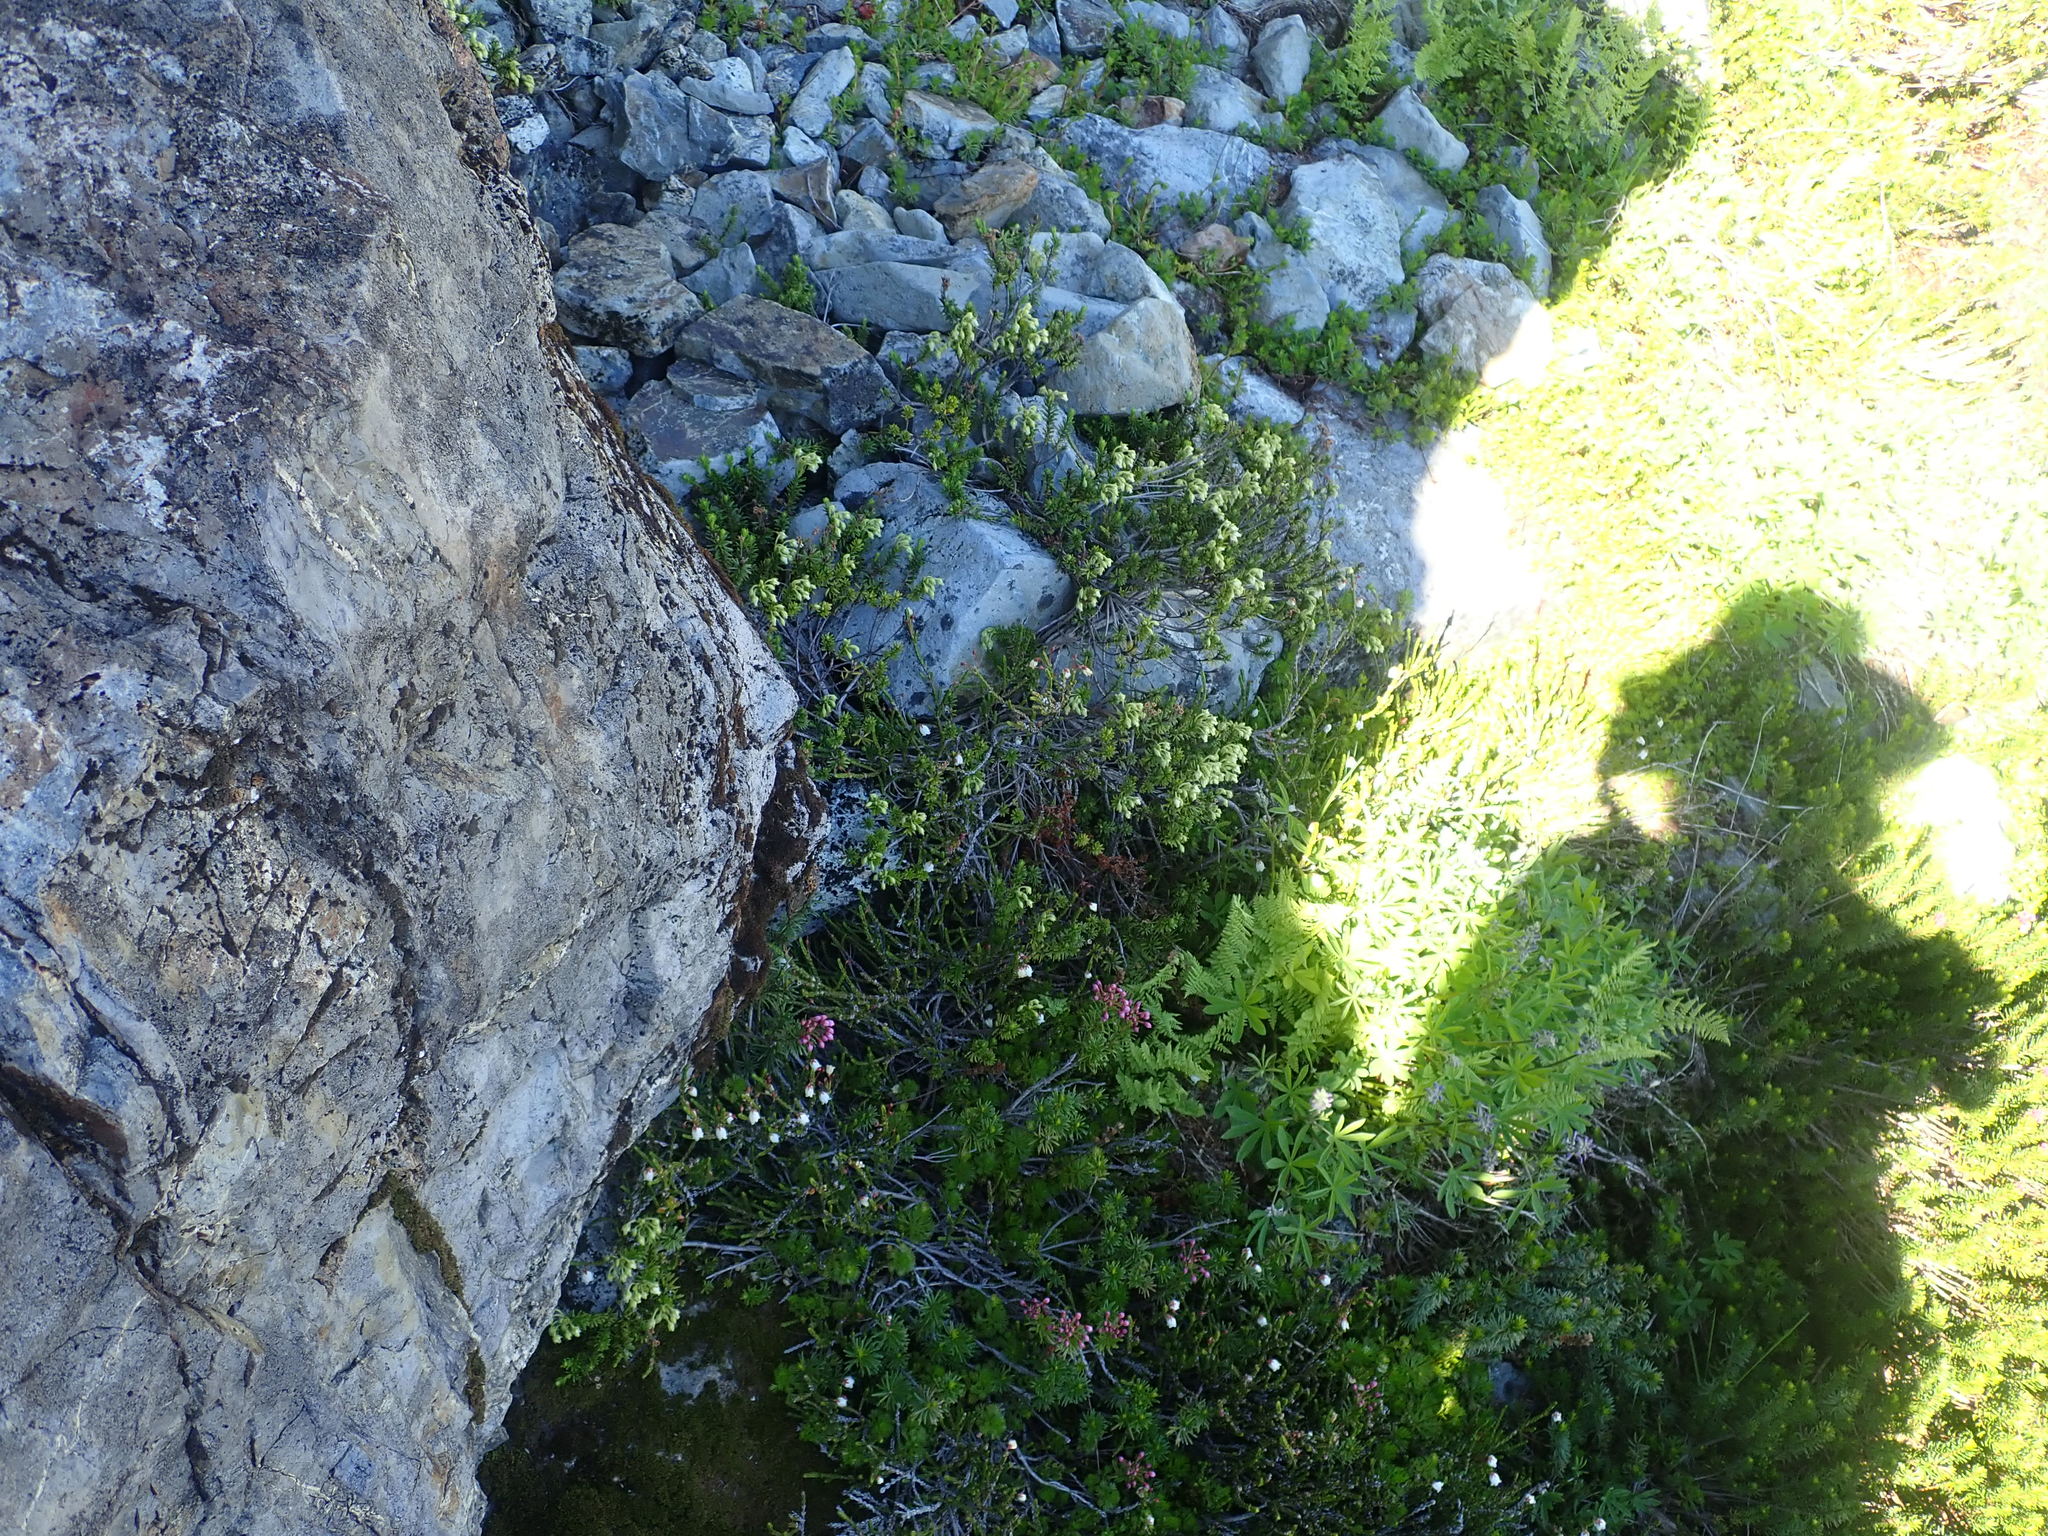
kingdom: Plantae
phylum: Tracheophyta
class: Magnoliopsida
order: Ericales
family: Ericaceae
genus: Phyllodoce
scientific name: Phyllodoce glanduliflora
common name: Cream mountain heather
